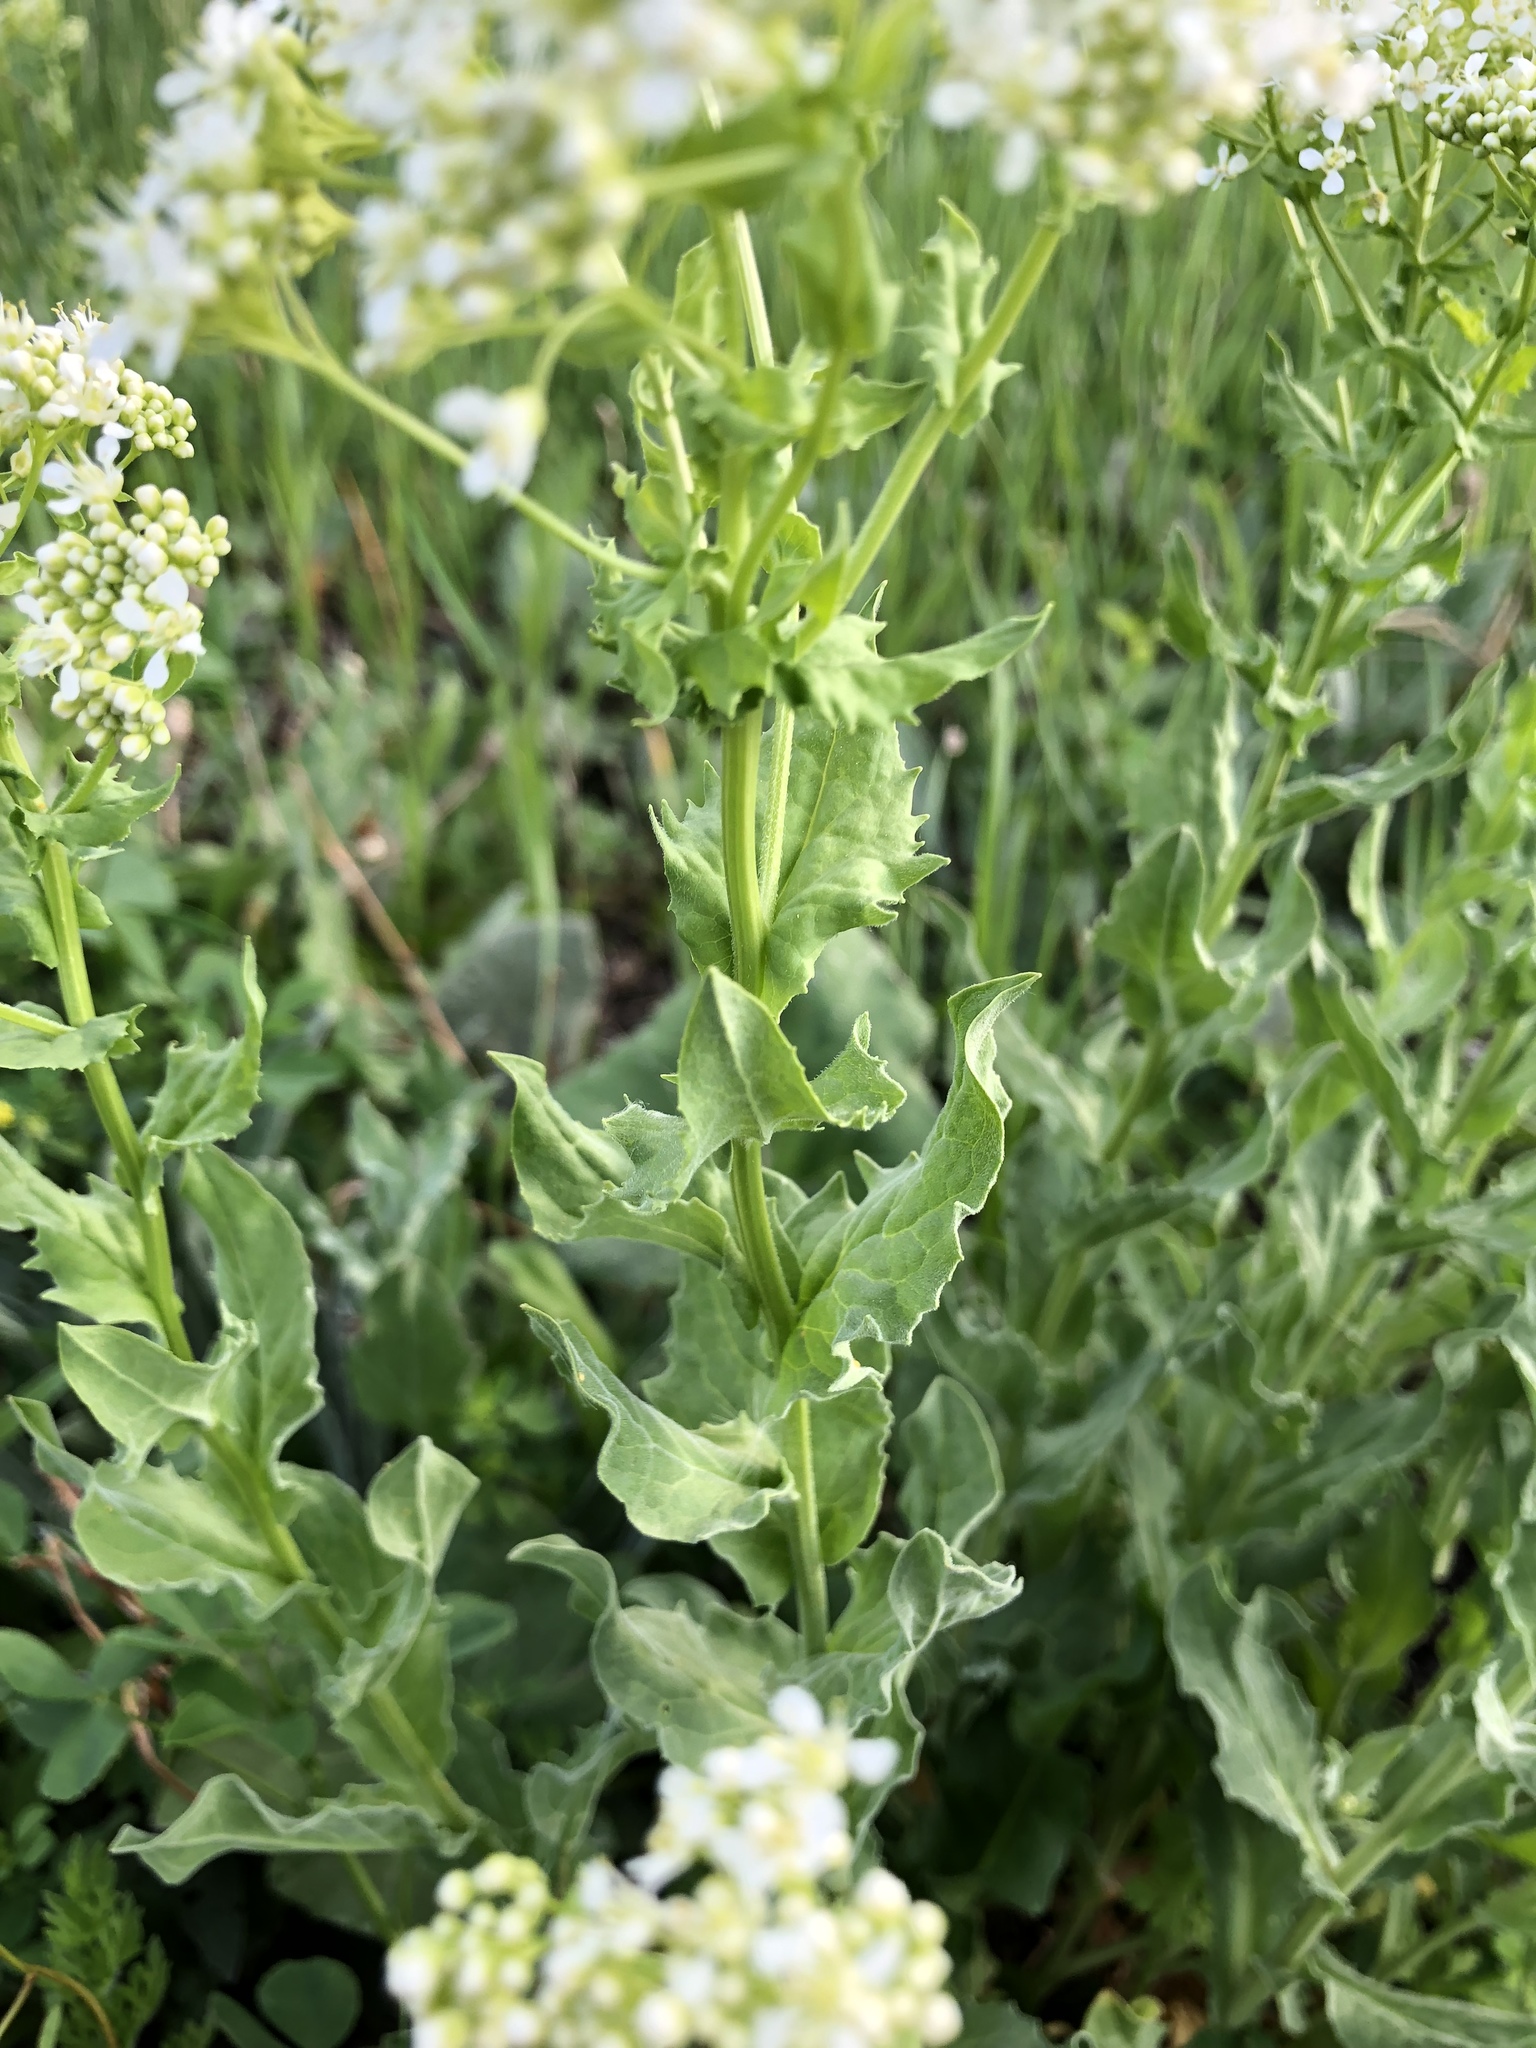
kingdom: Plantae
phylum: Tracheophyta
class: Magnoliopsida
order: Brassicales
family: Brassicaceae
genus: Lepidium
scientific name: Lepidium draba
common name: Hoary cress
